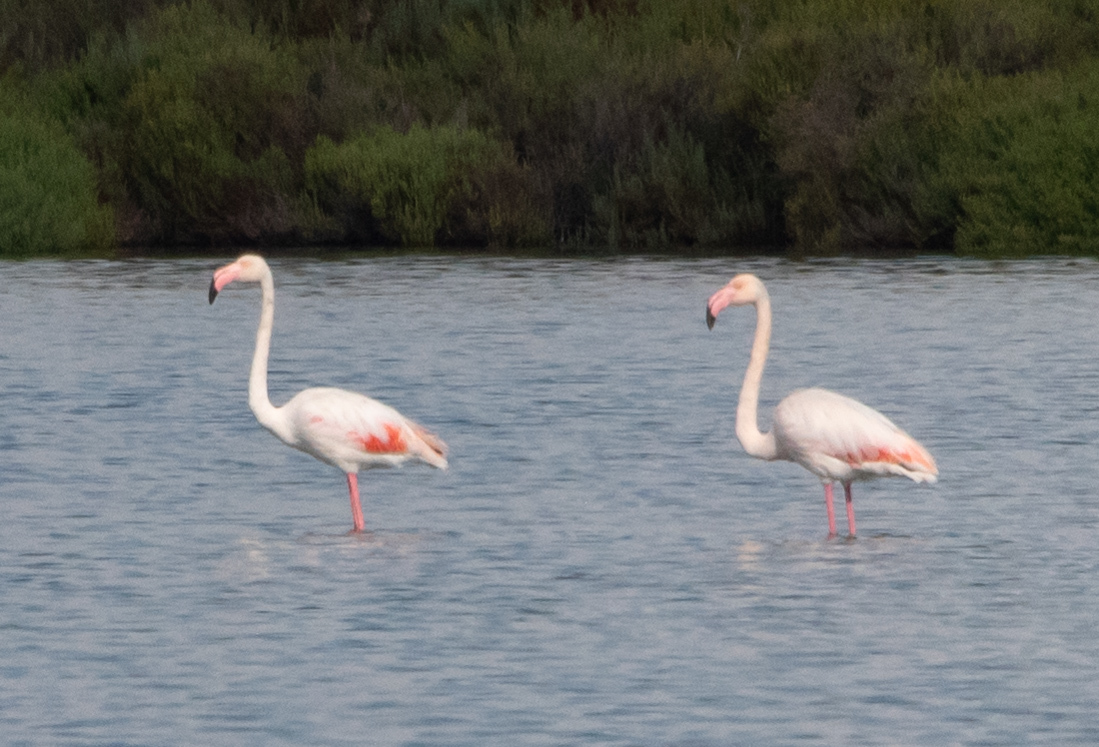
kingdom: Animalia
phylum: Chordata
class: Aves
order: Phoenicopteriformes
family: Phoenicopteridae
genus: Phoenicopterus
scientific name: Phoenicopterus roseus
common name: Greater flamingo
